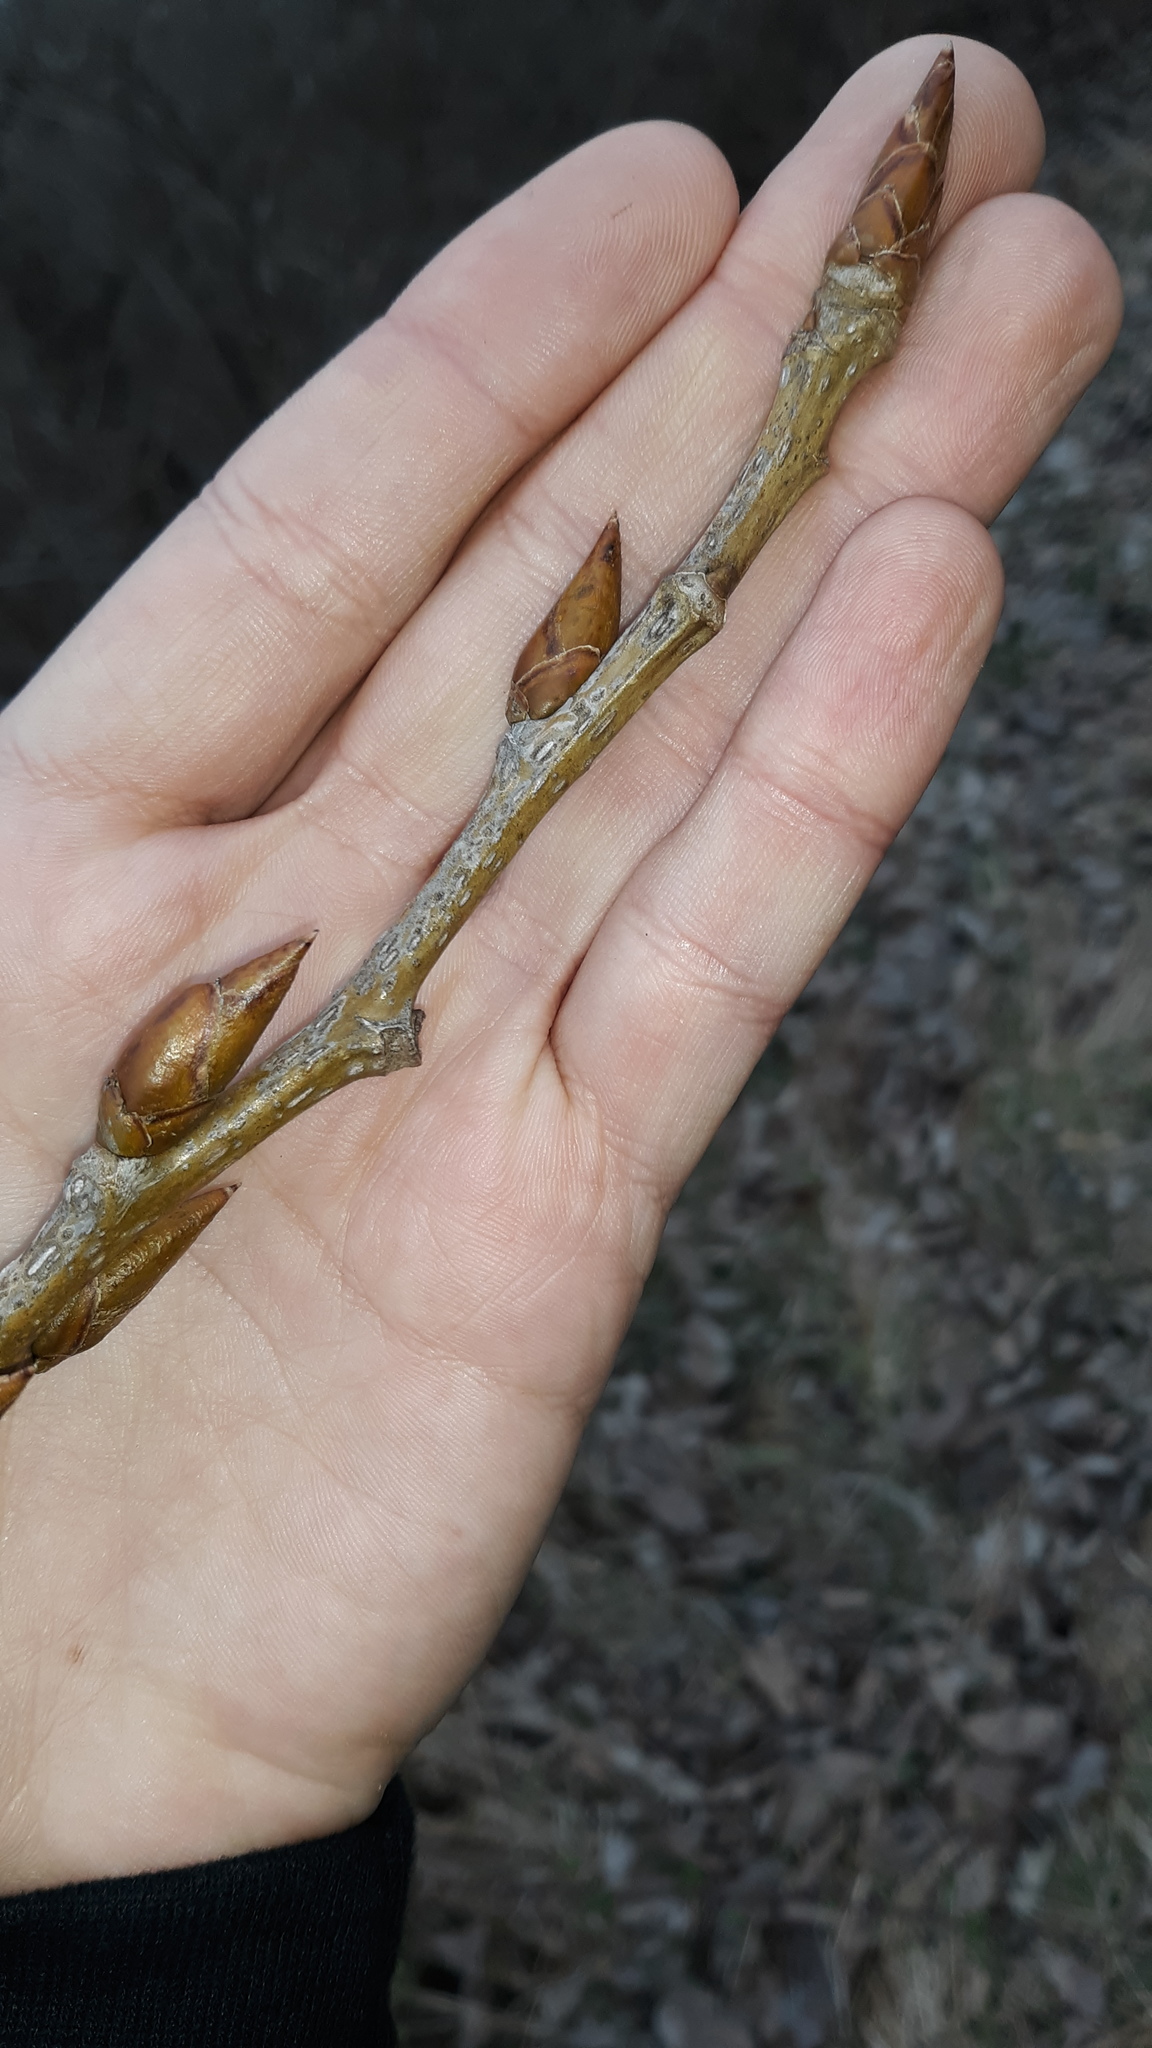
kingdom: Plantae
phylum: Tracheophyta
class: Magnoliopsida
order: Saxifragales
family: Altingiaceae
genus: Liquidambar
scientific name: Liquidambar styraciflua
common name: Sweet gum
